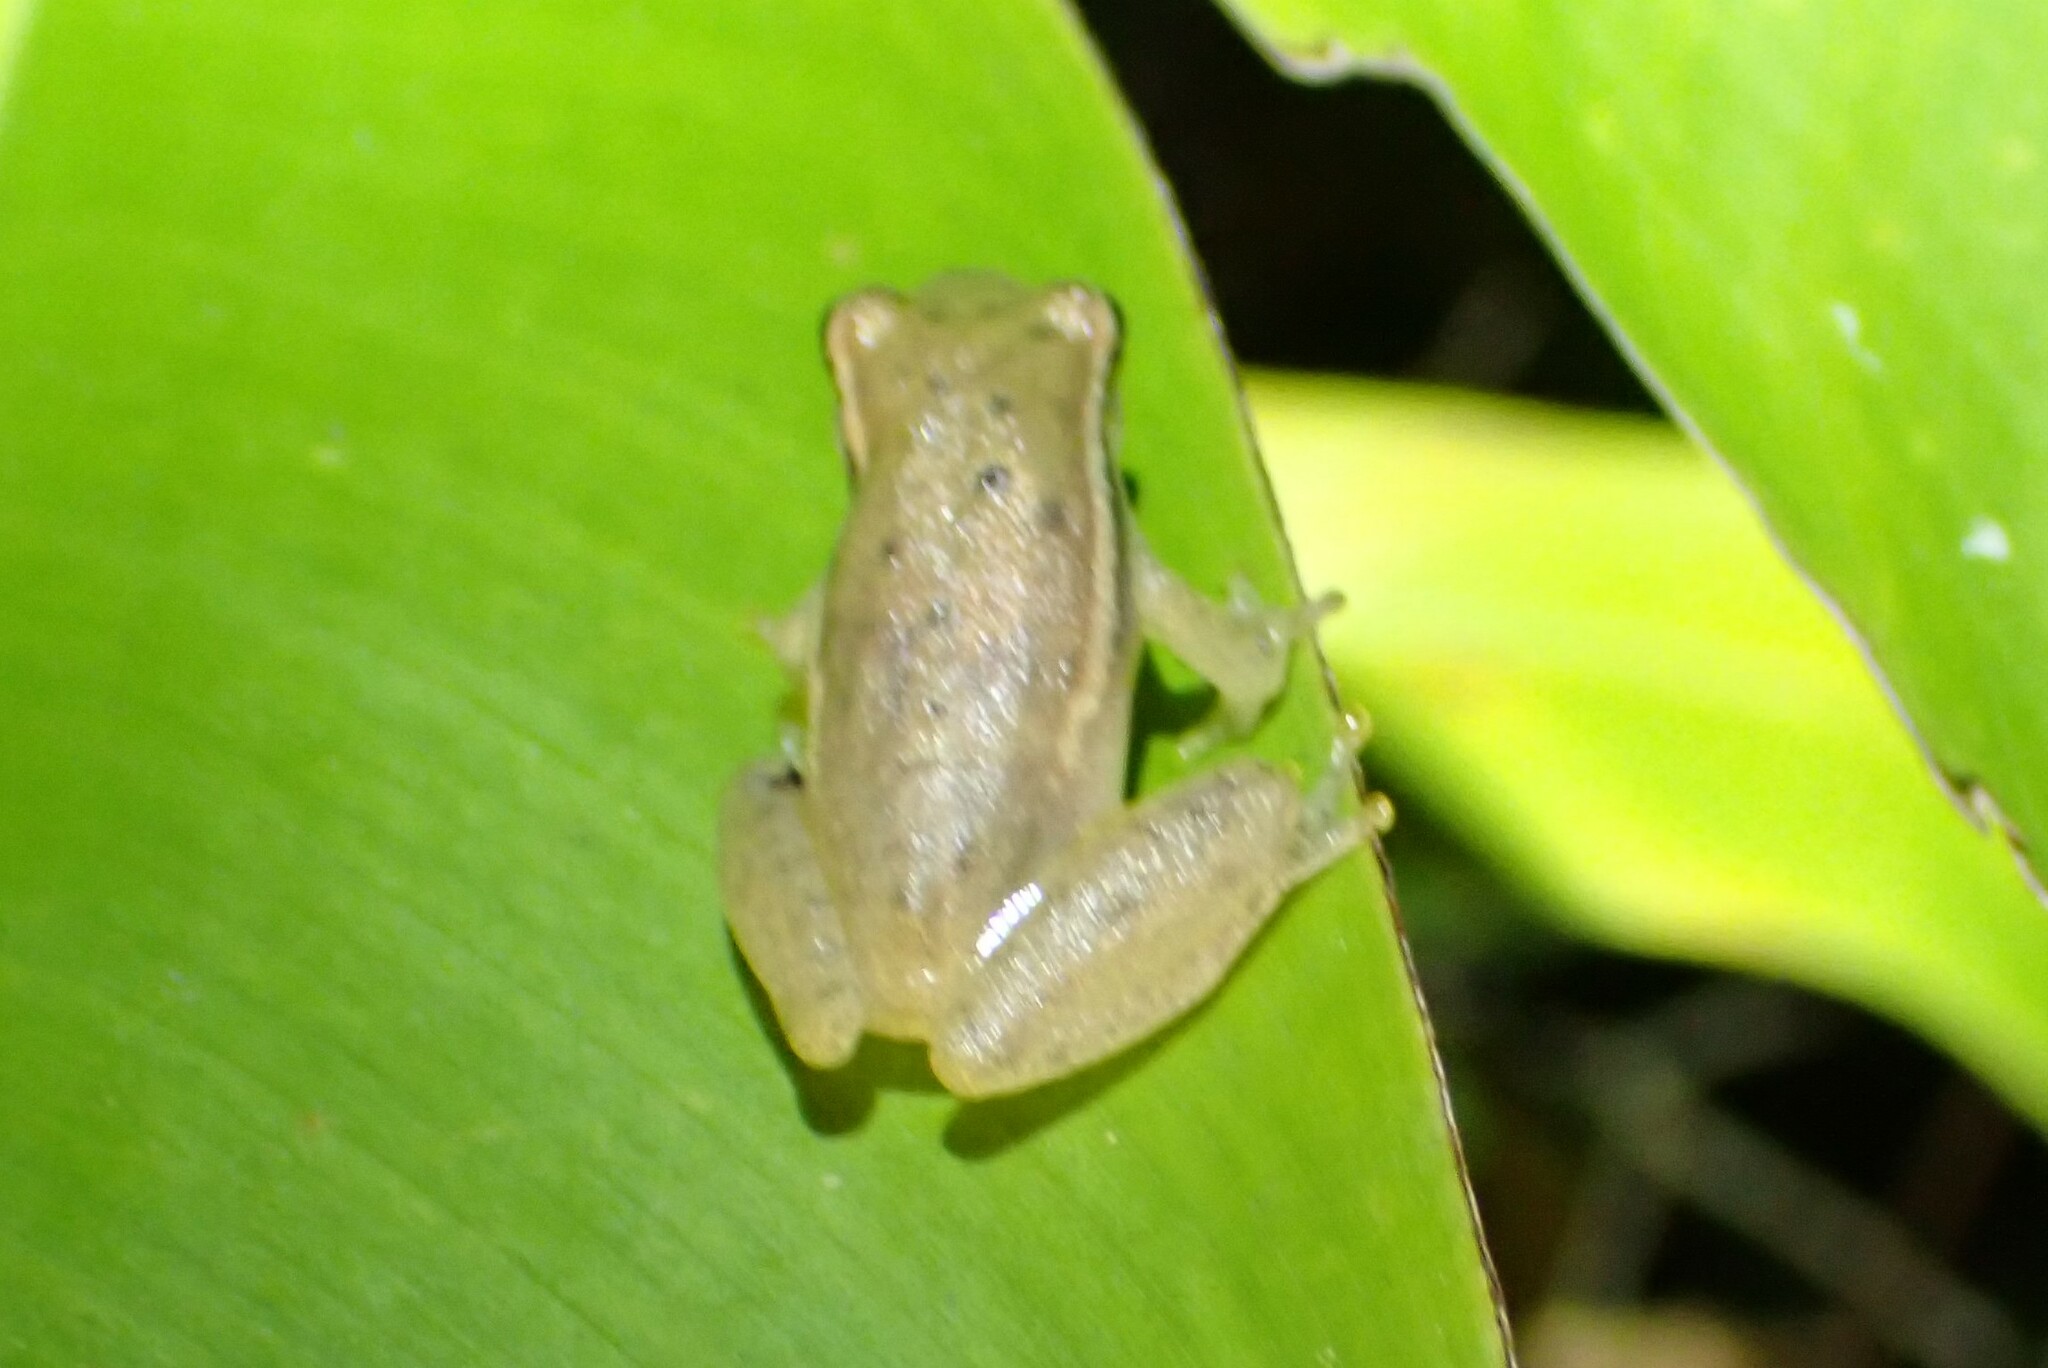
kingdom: Animalia
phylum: Chordata
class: Amphibia
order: Anura
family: Hylidae
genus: Tlalocohyla
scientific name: Tlalocohyla picta
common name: Painted treefrog
